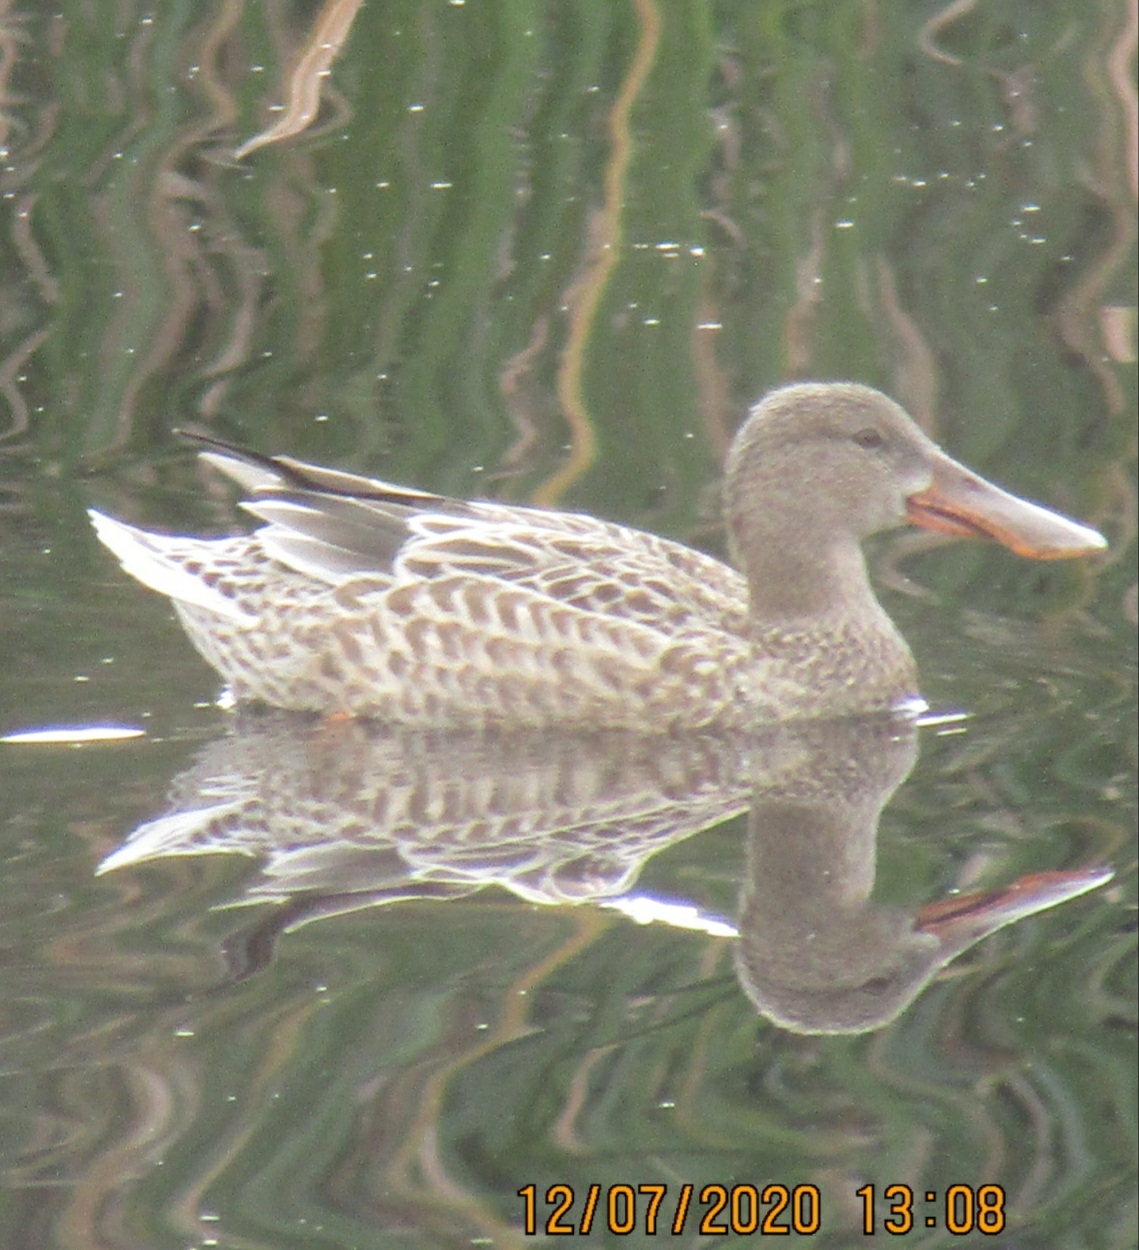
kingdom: Animalia
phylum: Chordata
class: Aves
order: Anseriformes
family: Anatidae
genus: Spatula
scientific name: Spatula clypeata
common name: Northern shoveler
